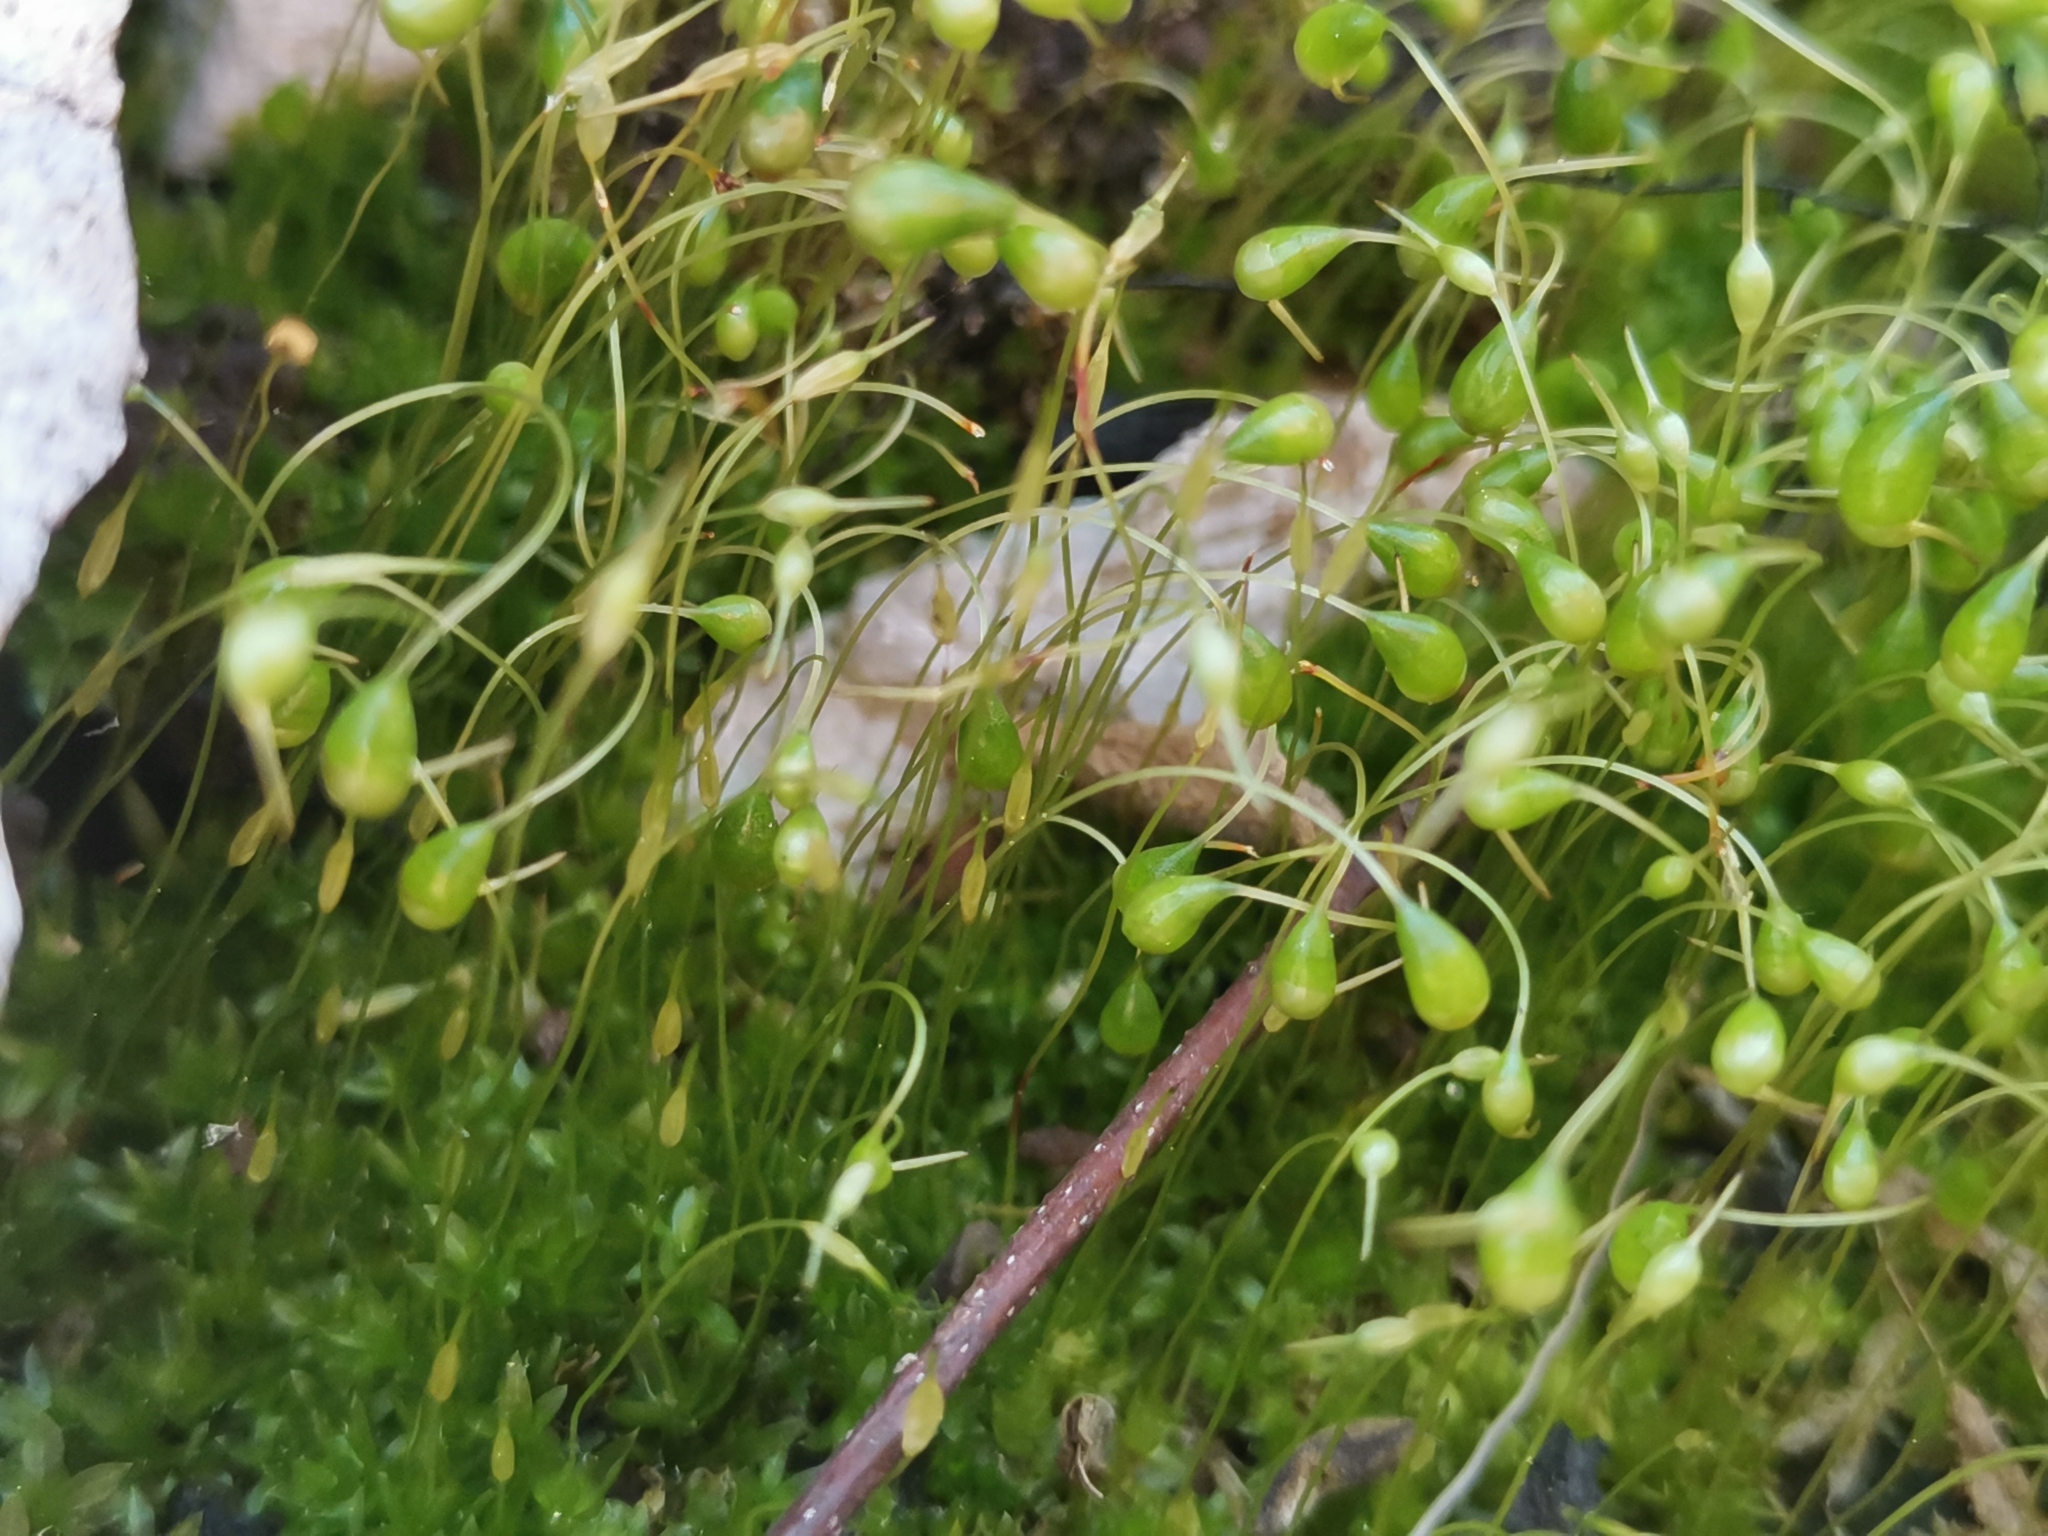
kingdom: Plantae
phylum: Bryophyta
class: Bryopsida
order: Funariales
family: Funariaceae
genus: Funaria
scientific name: Funaria hygrometrica
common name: Common cord moss
